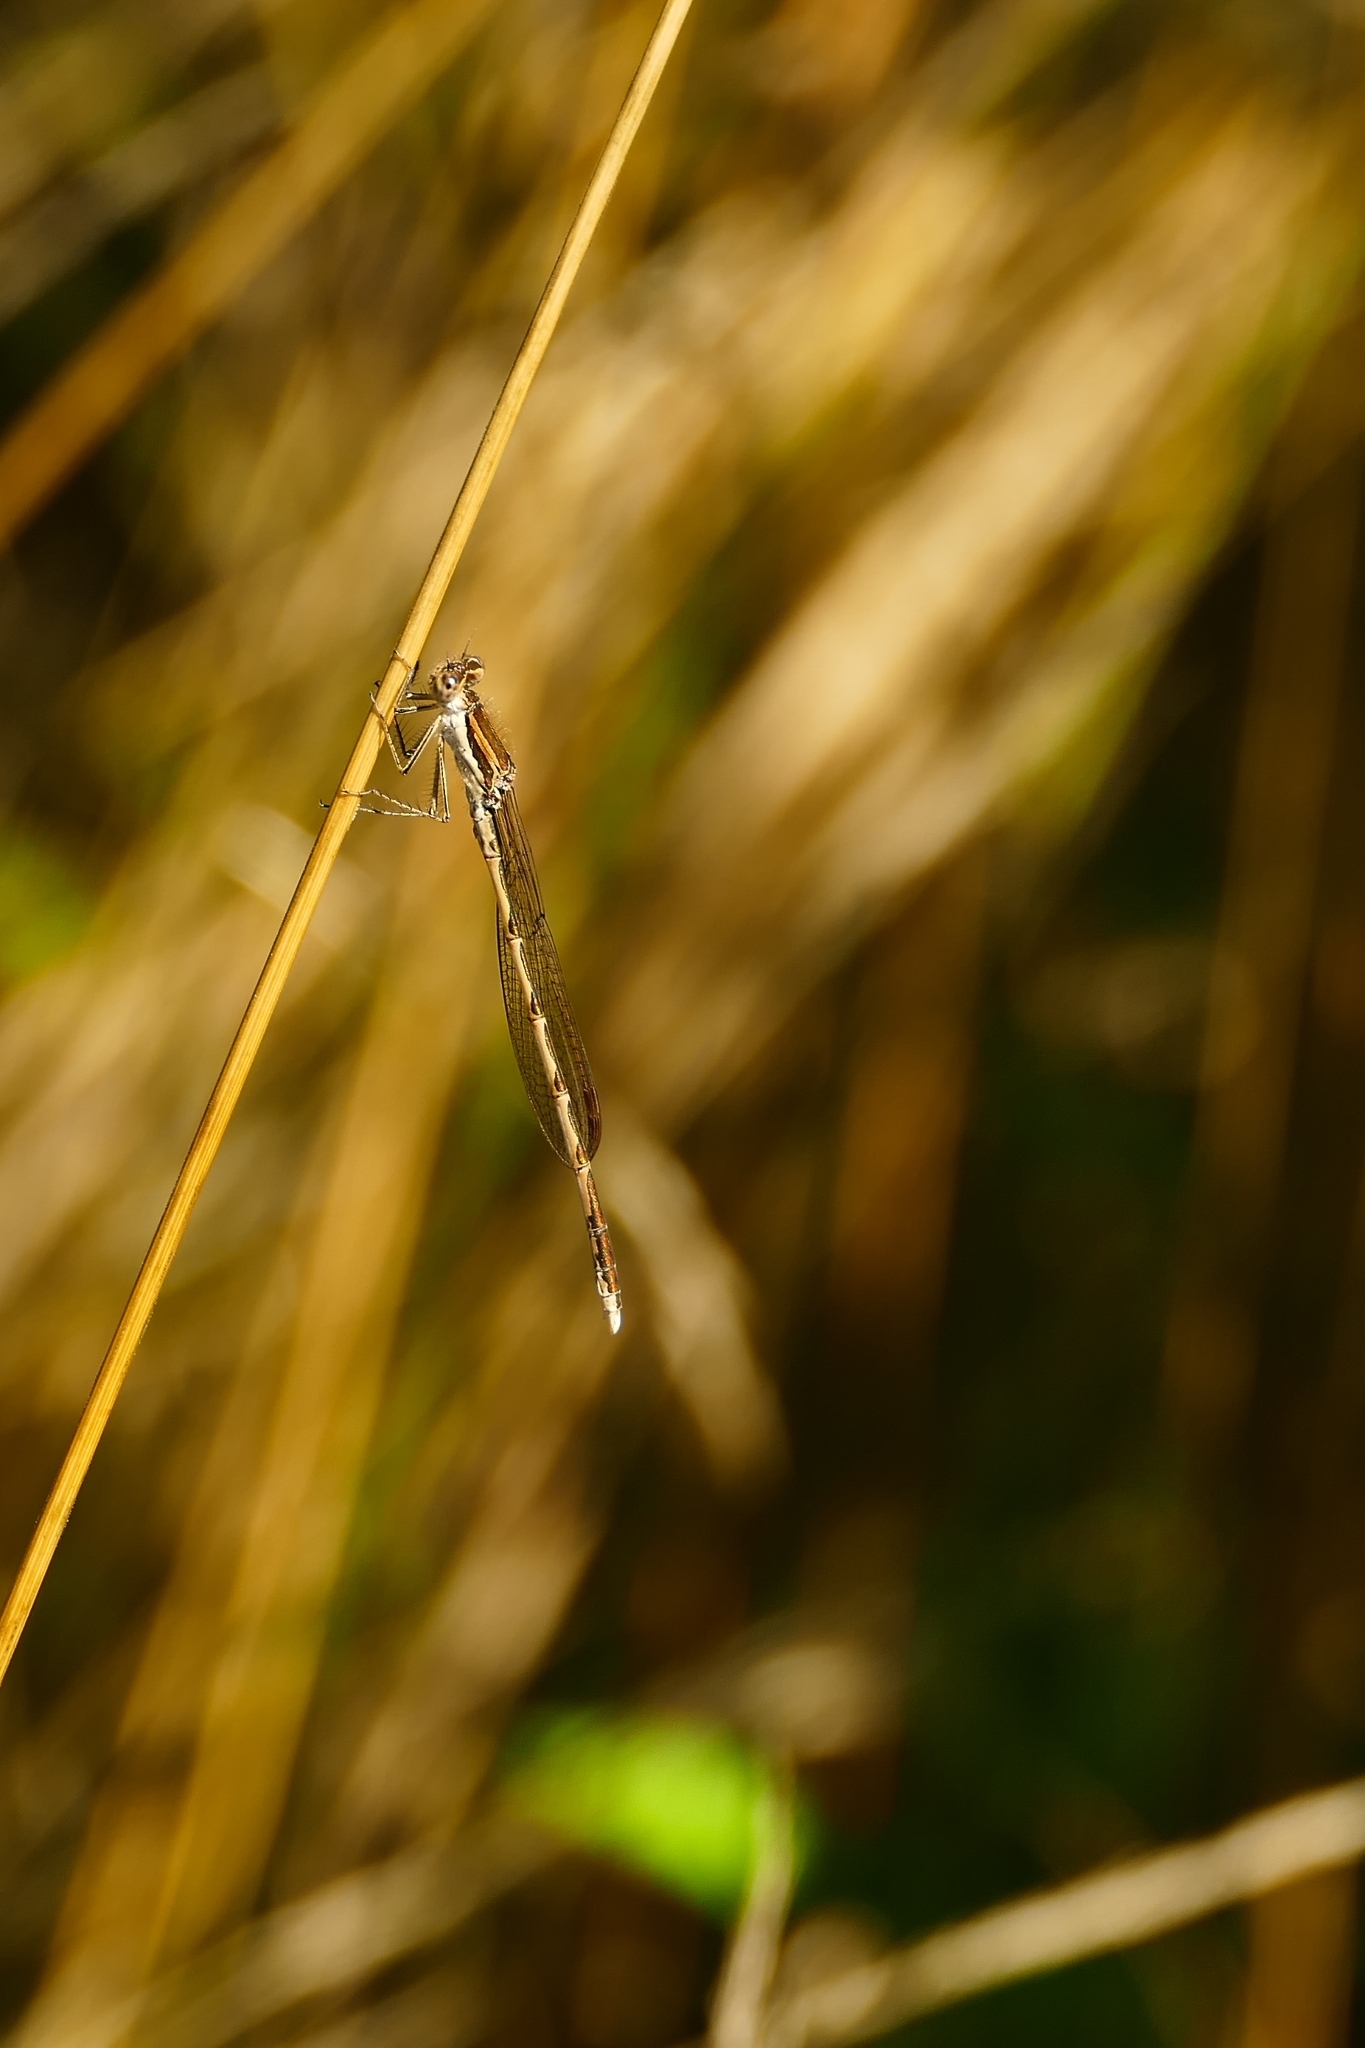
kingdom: Animalia
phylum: Arthropoda
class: Insecta
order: Odonata
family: Lestidae
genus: Sympecma
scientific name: Sympecma fusca
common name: Common winter damsel
